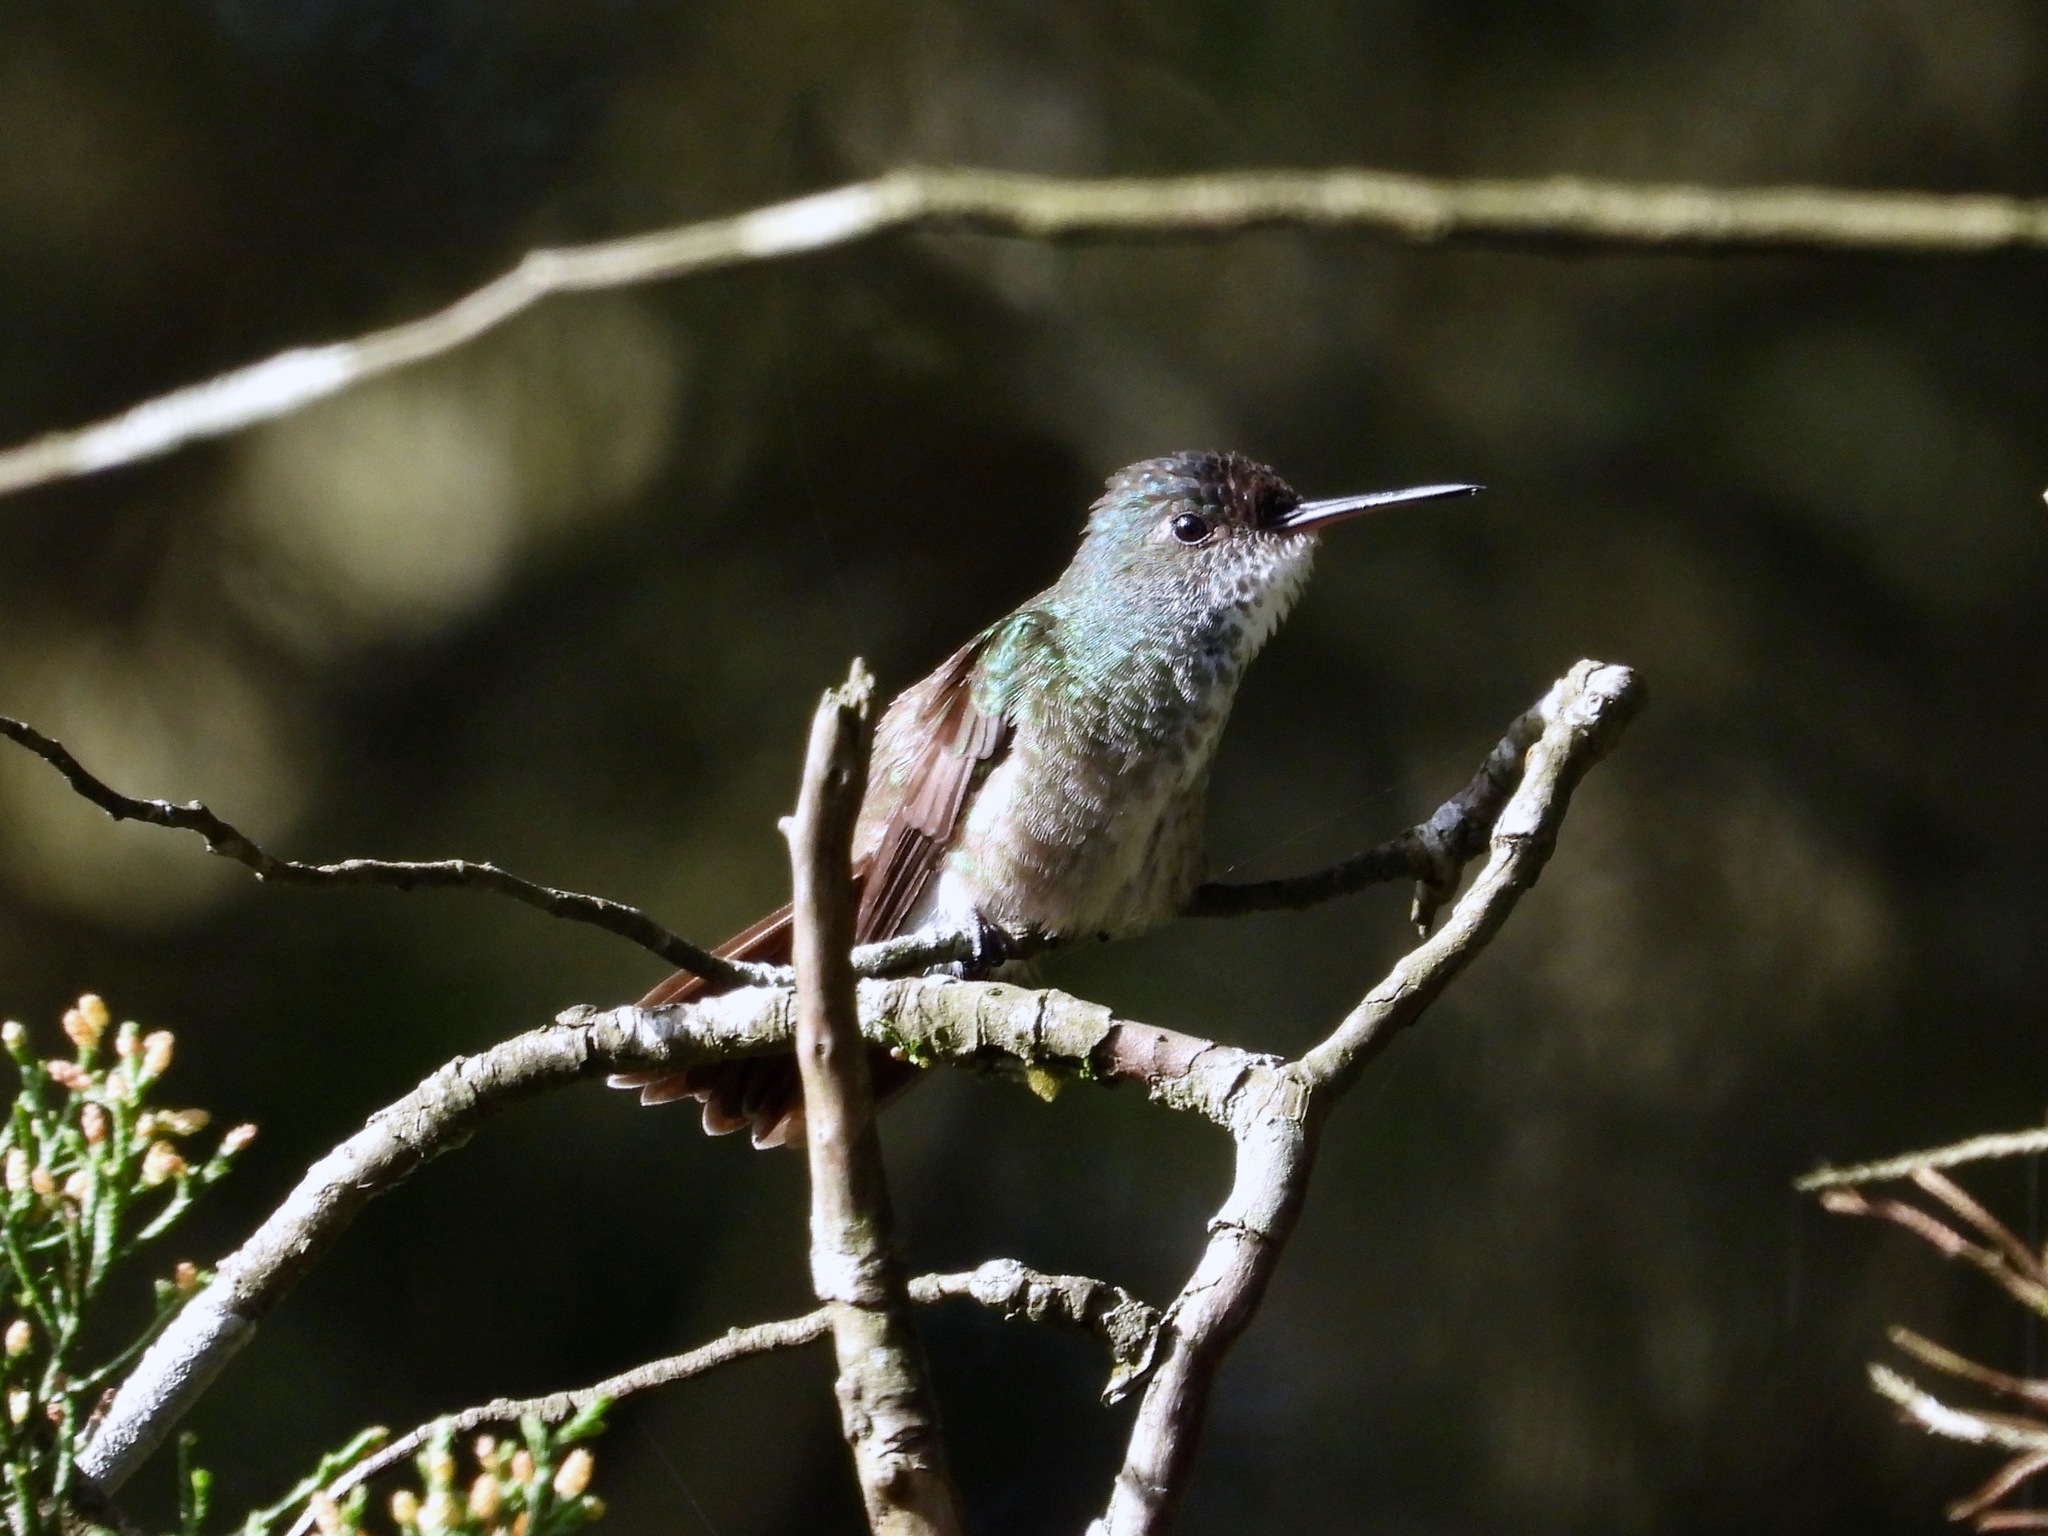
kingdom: Animalia
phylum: Chordata
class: Aves
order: Apodiformes
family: Trochilidae
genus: Saucerottia
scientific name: Saucerottia cyanocephala
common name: Azure-crowned hummingbird
